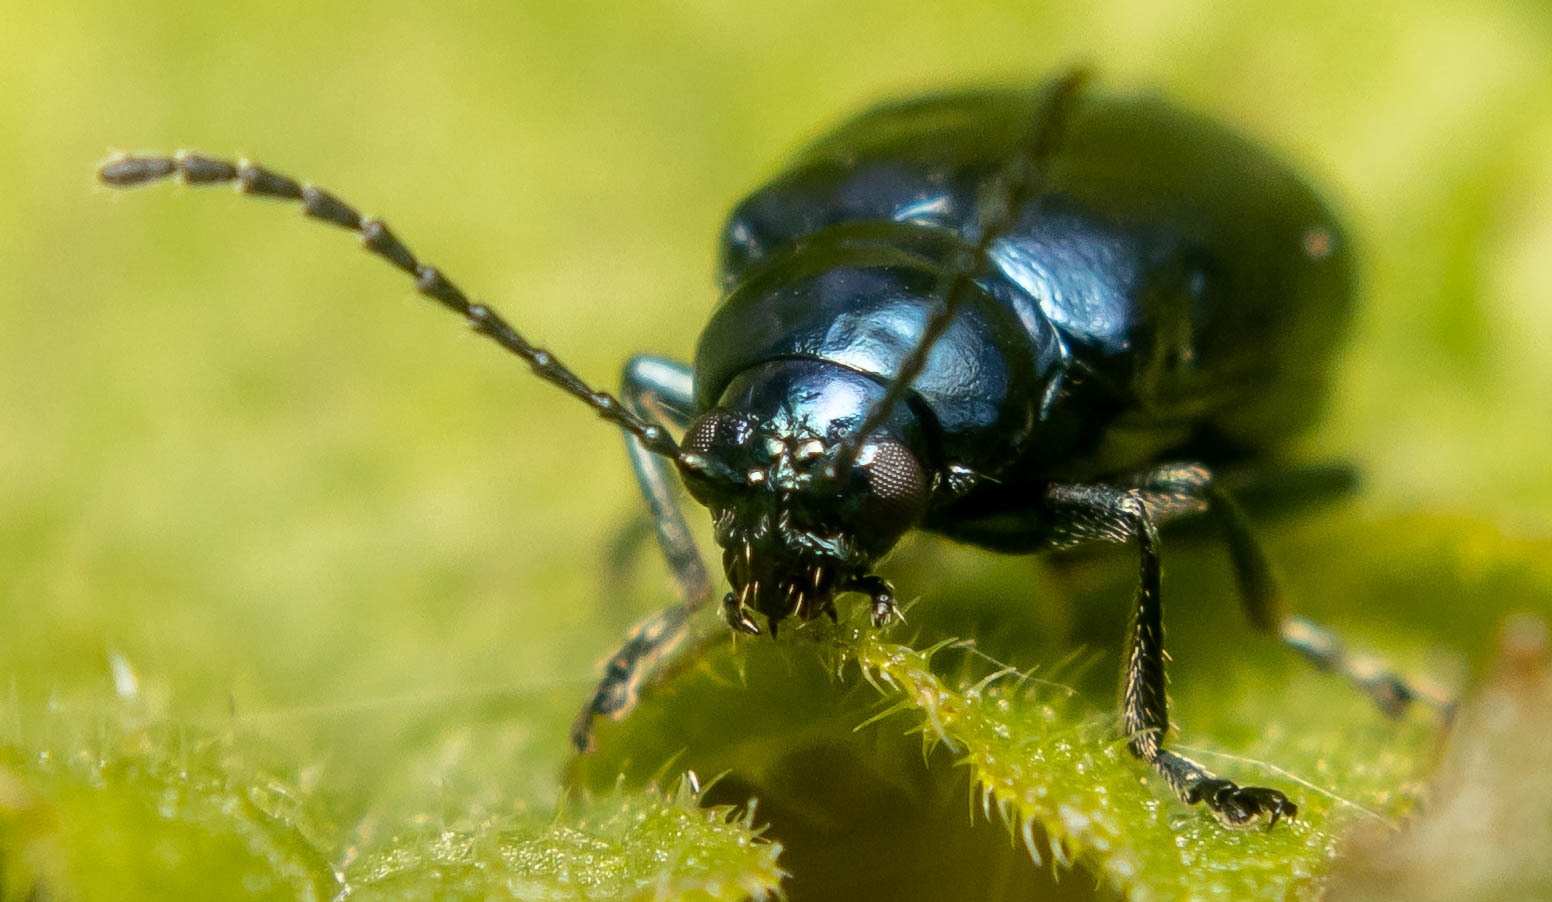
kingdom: Animalia
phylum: Arthropoda
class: Insecta
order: Coleoptera
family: Chrysomelidae
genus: Agelastica
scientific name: Agelastica alni
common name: Alder leaf beetle
